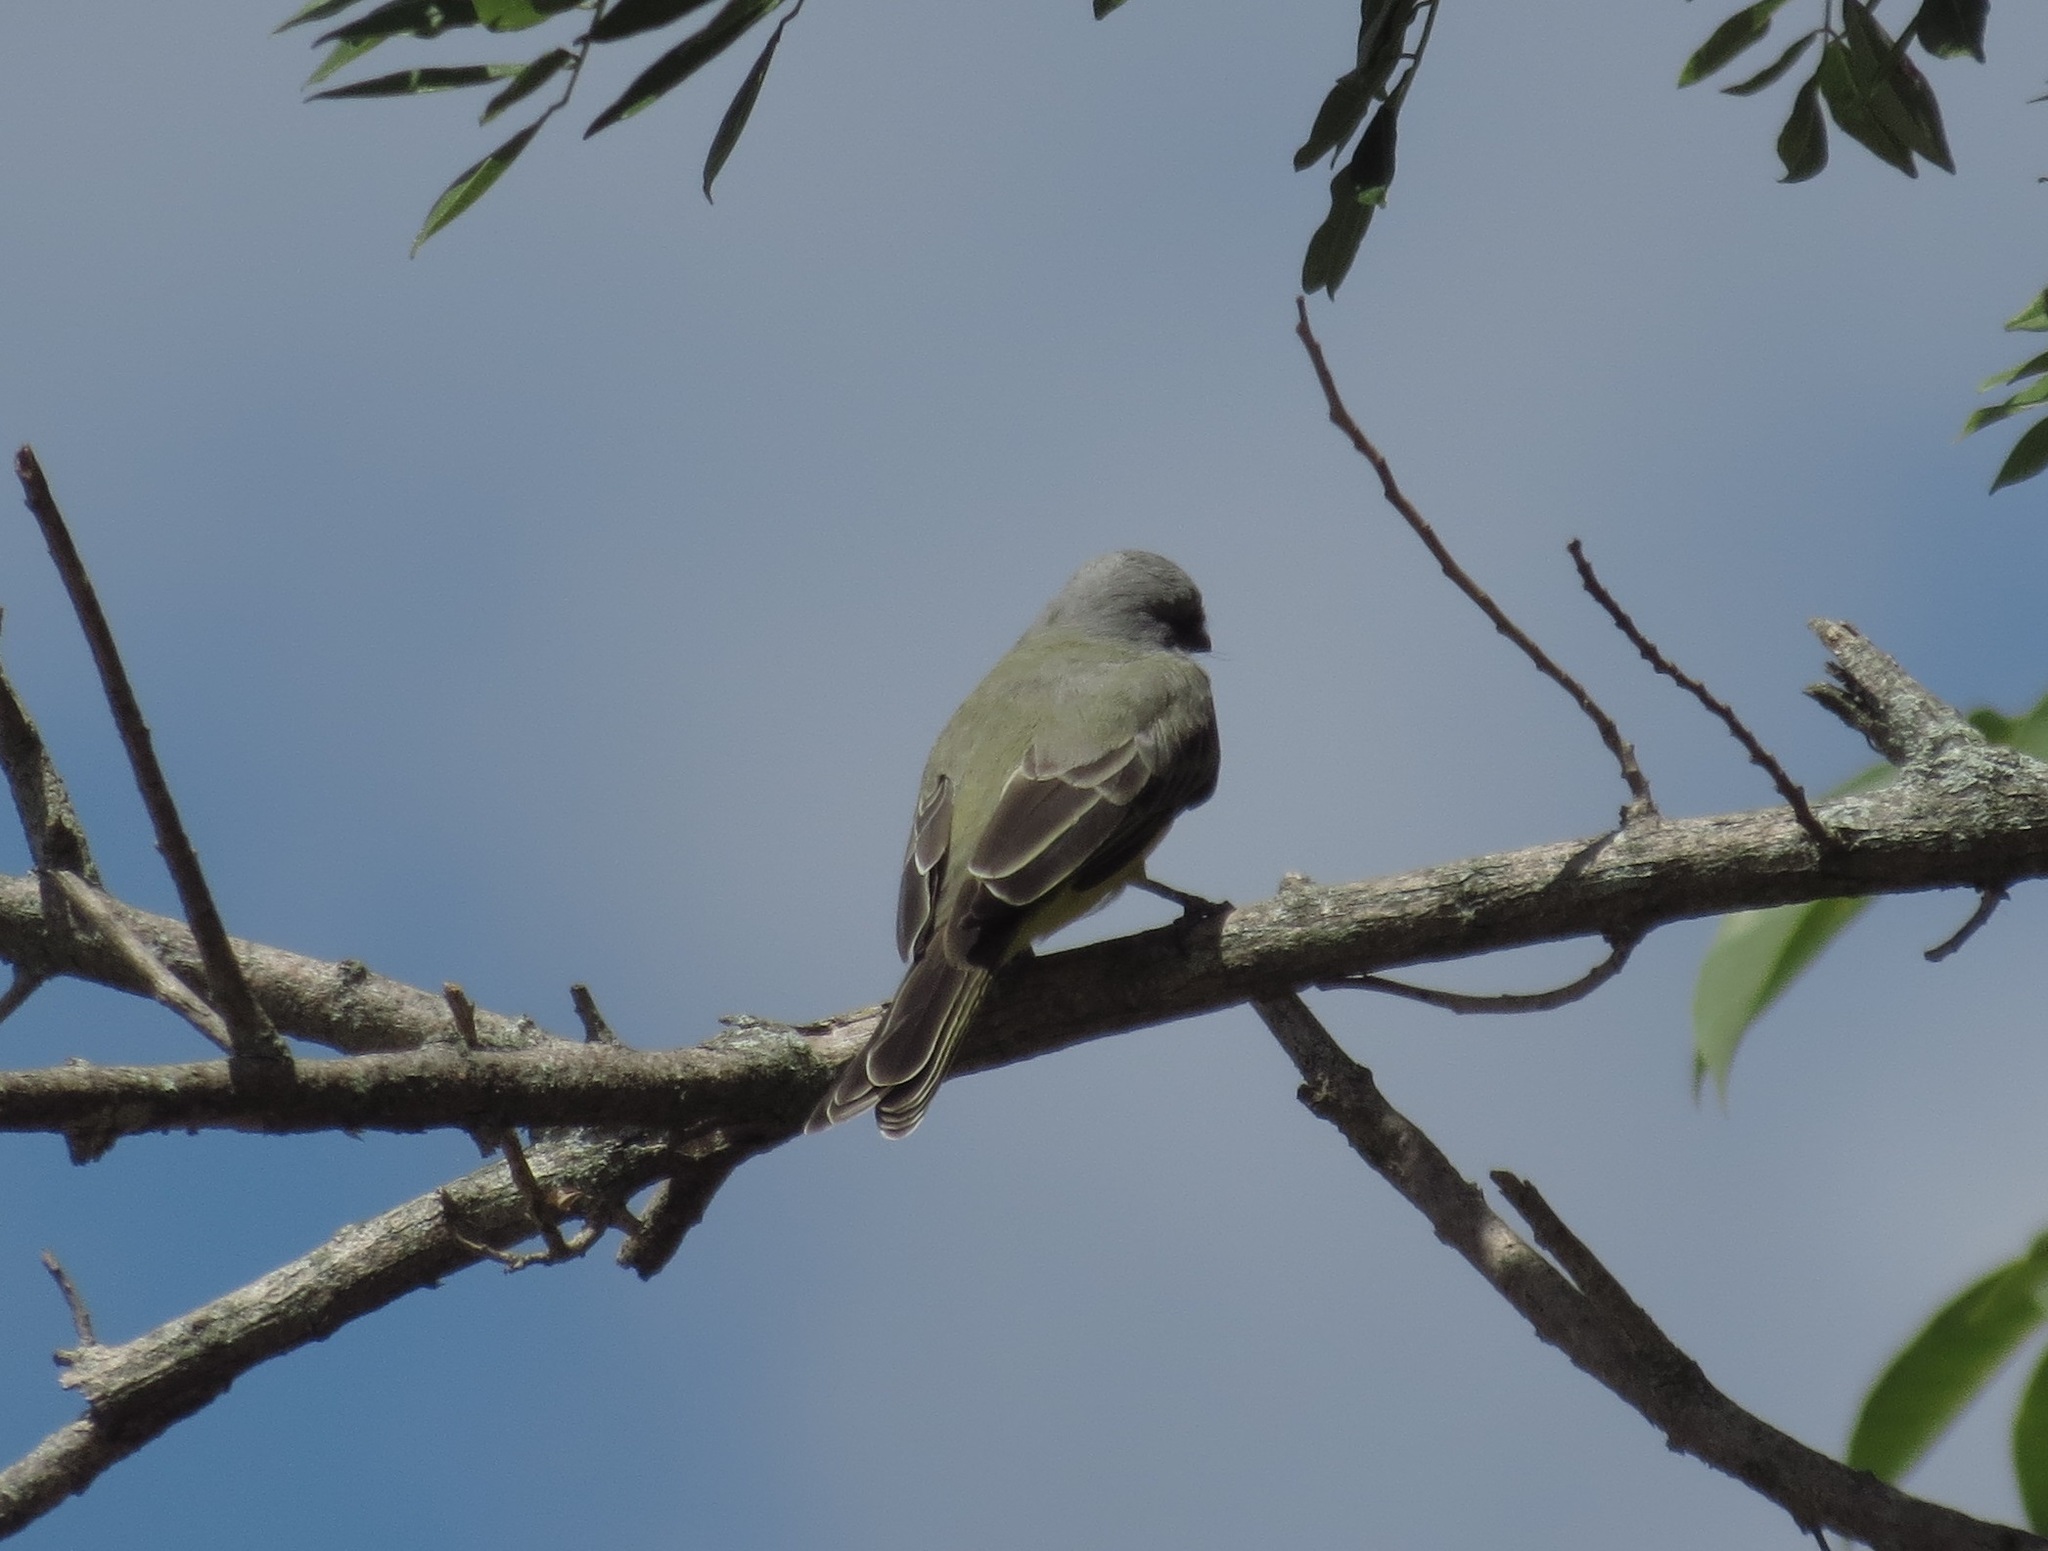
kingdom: Animalia
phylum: Chordata
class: Aves
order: Passeriformes
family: Tyrannidae
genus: Tyrannus
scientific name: Tyrannus melancholicus
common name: Tropical kingbird
